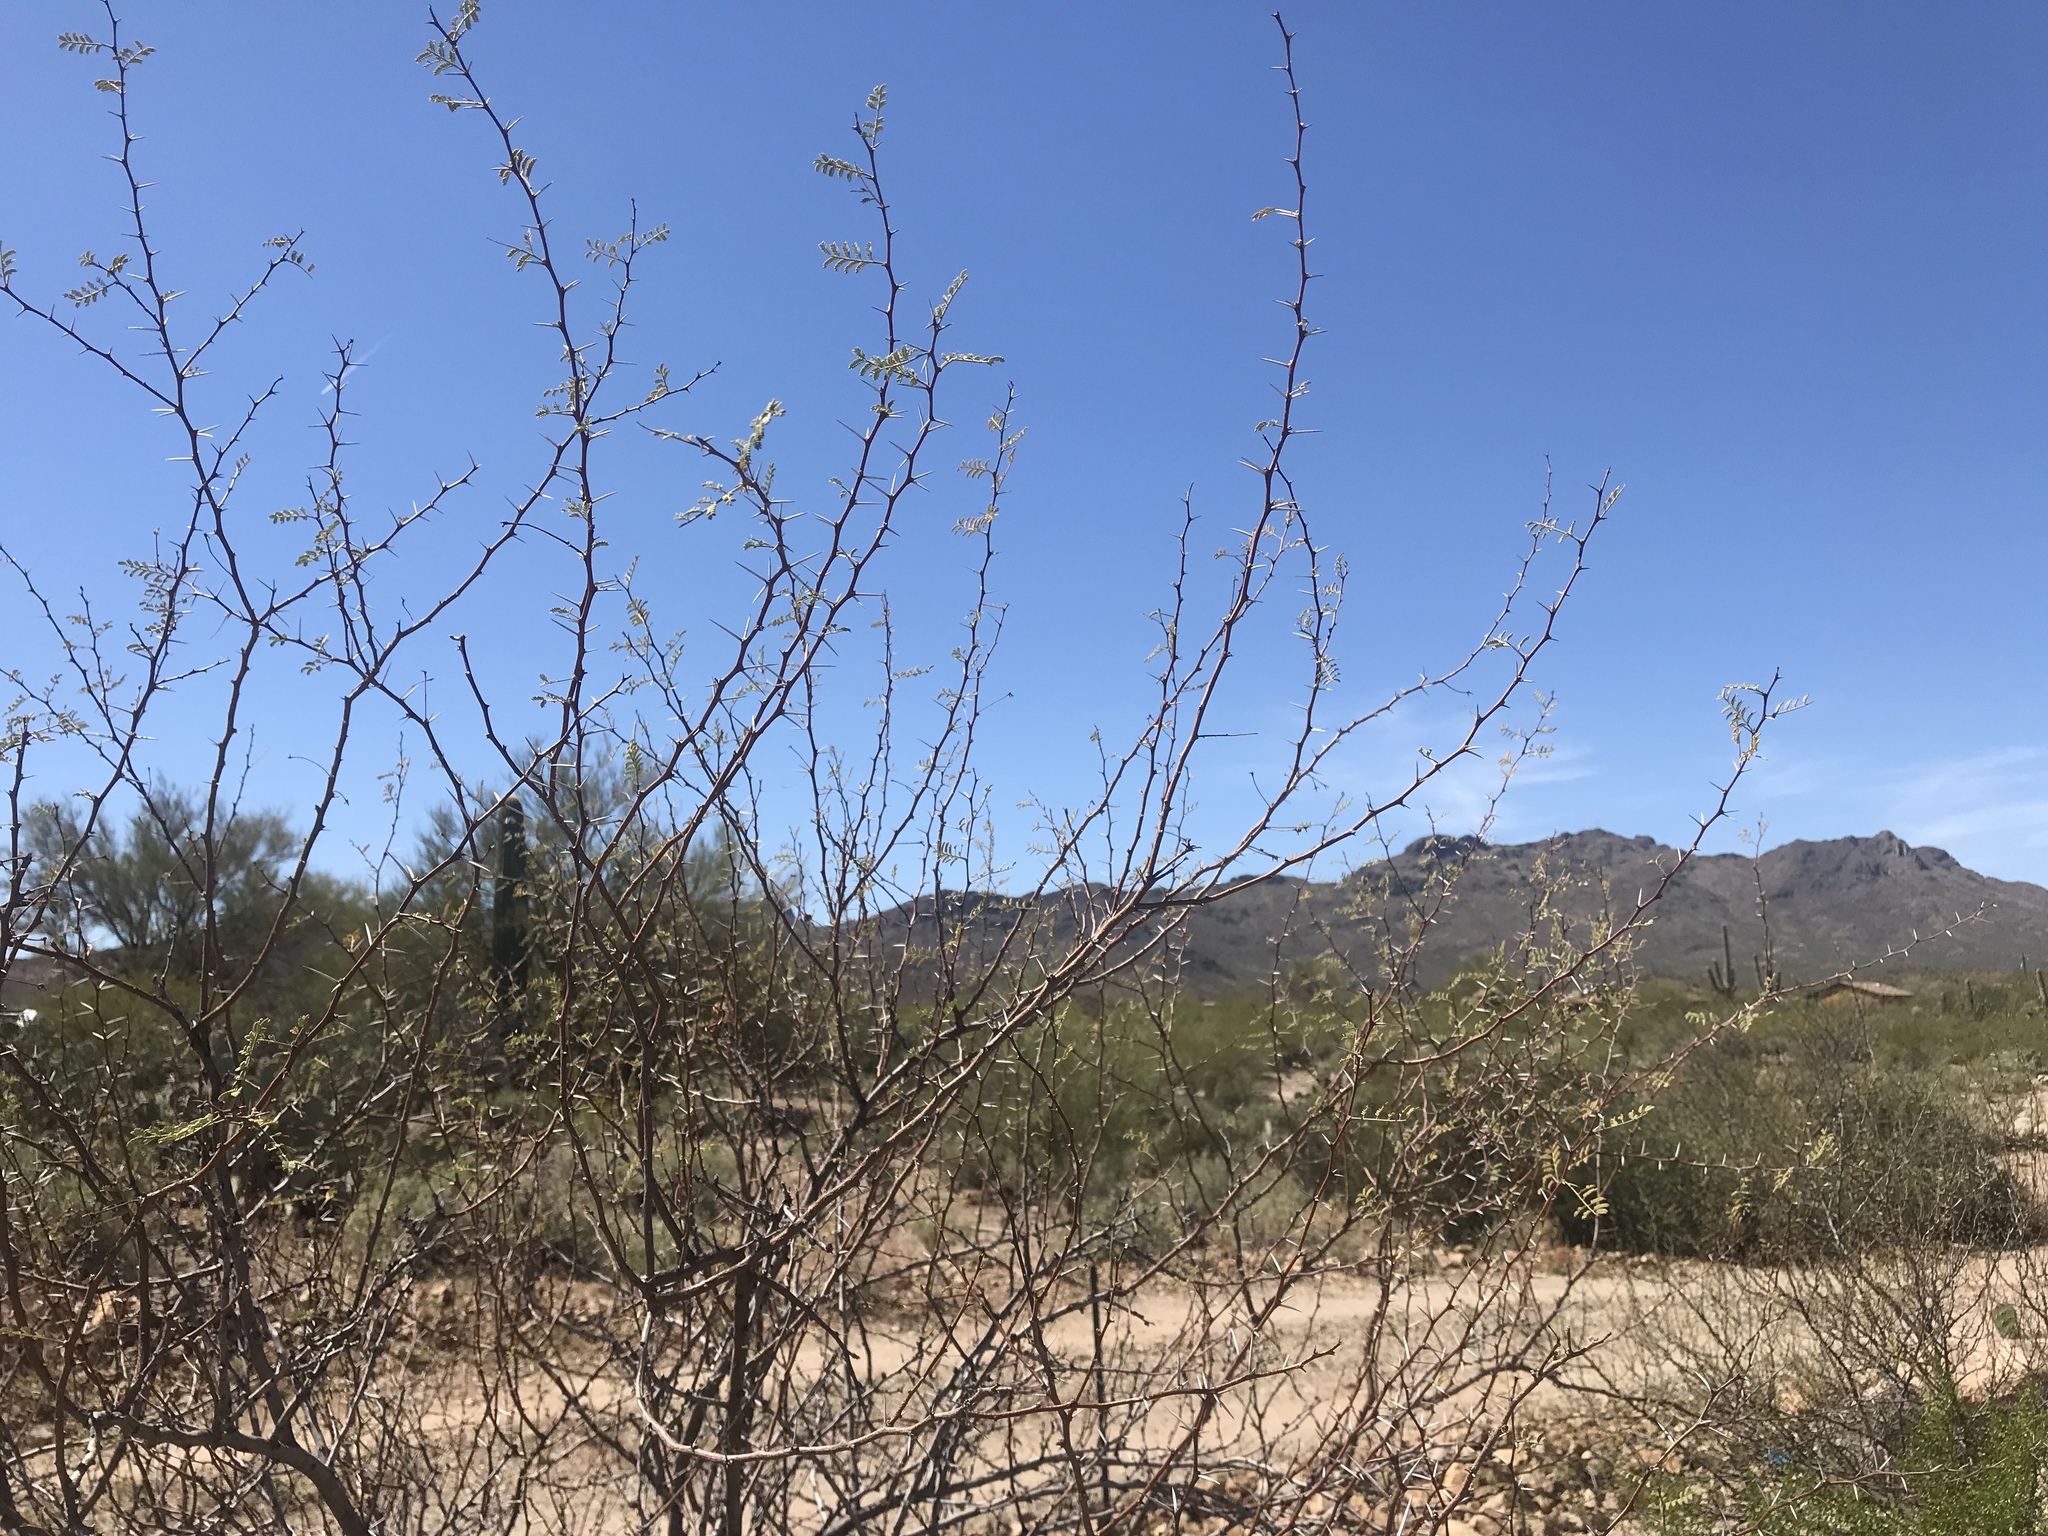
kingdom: Plantae
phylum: Tracheophyta
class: Magnoliopsida
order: Fabales
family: Fabaceae
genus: Vachellia
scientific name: Vachellia constricta
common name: Mescat acacia
